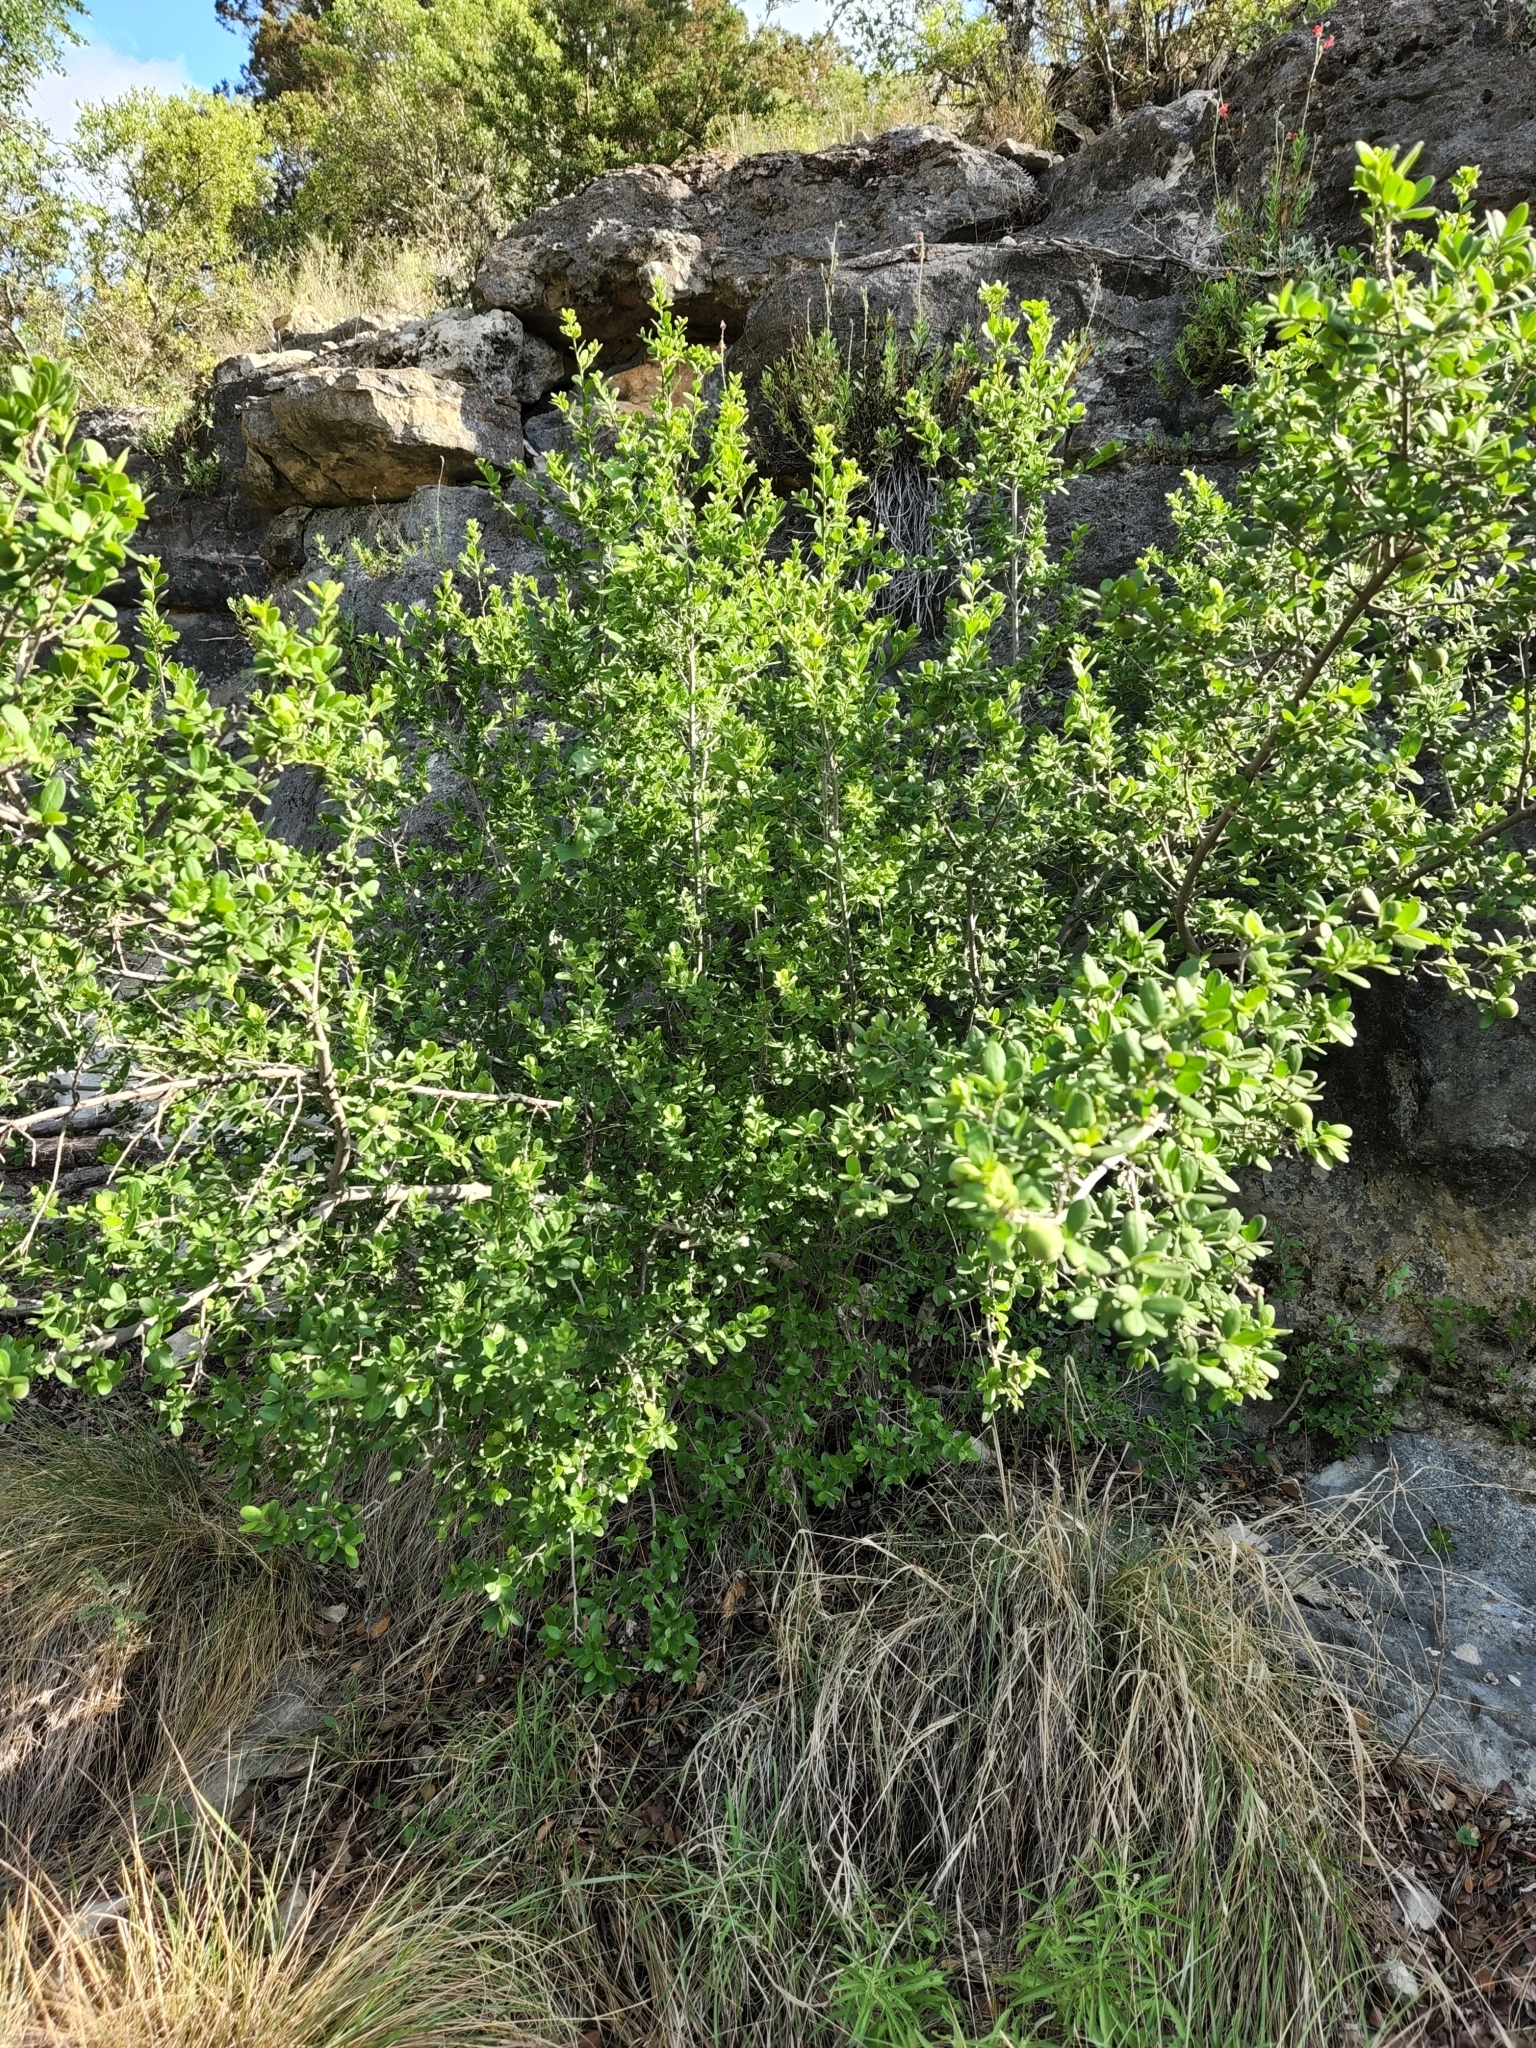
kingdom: Plantae
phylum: Tracheophyta
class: Magnoliopsida
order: Ericales
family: Ebenaceae
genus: Diospyros
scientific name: Diospyros texana
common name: Texas persimmon
